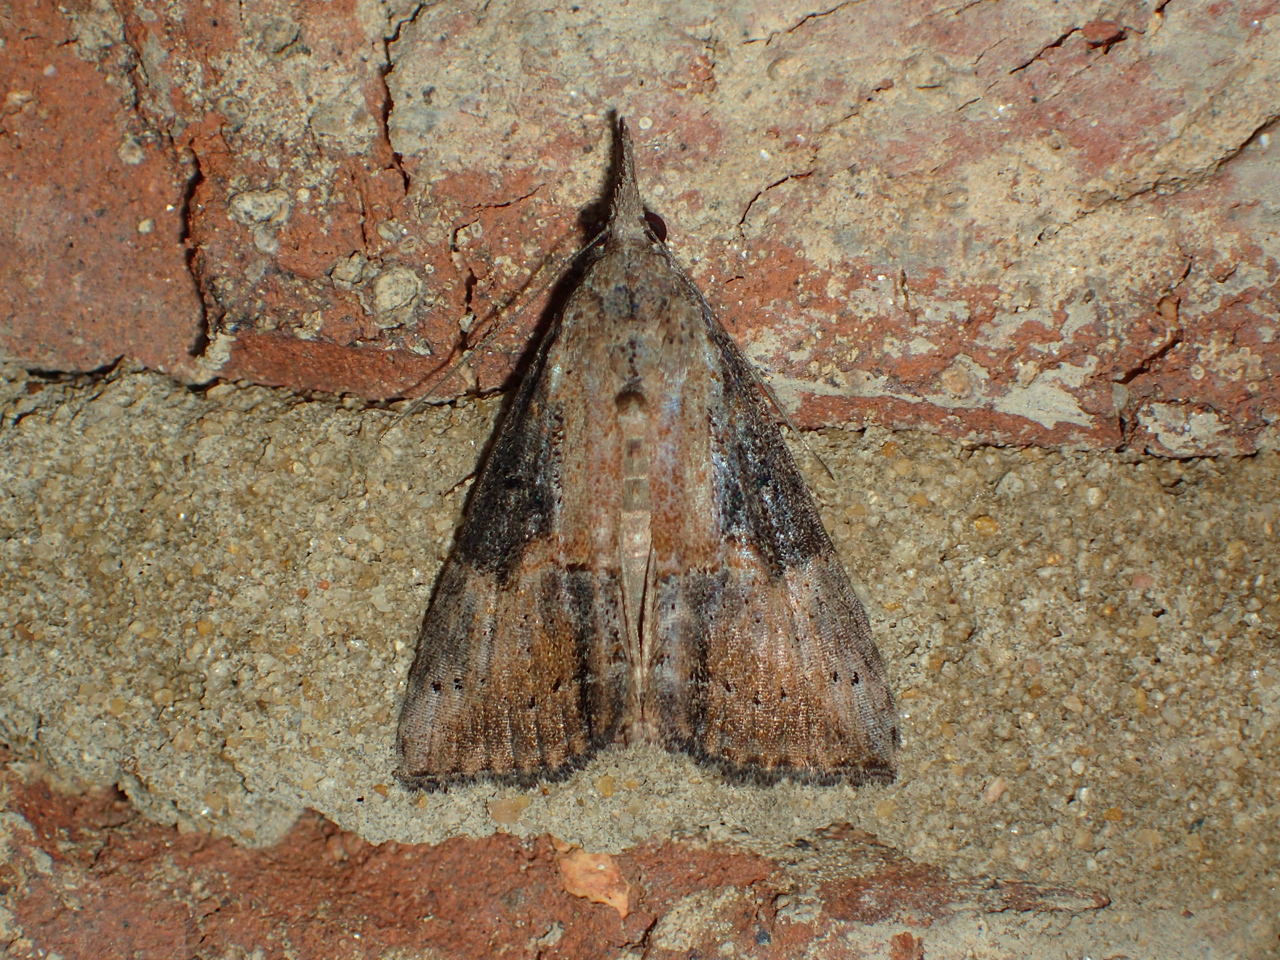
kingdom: Animalia
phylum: Arthropoda
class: Insecta
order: Lepidoptera
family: Erebidae
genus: Hypena
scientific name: Hypena scabra
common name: Green cloverworm
